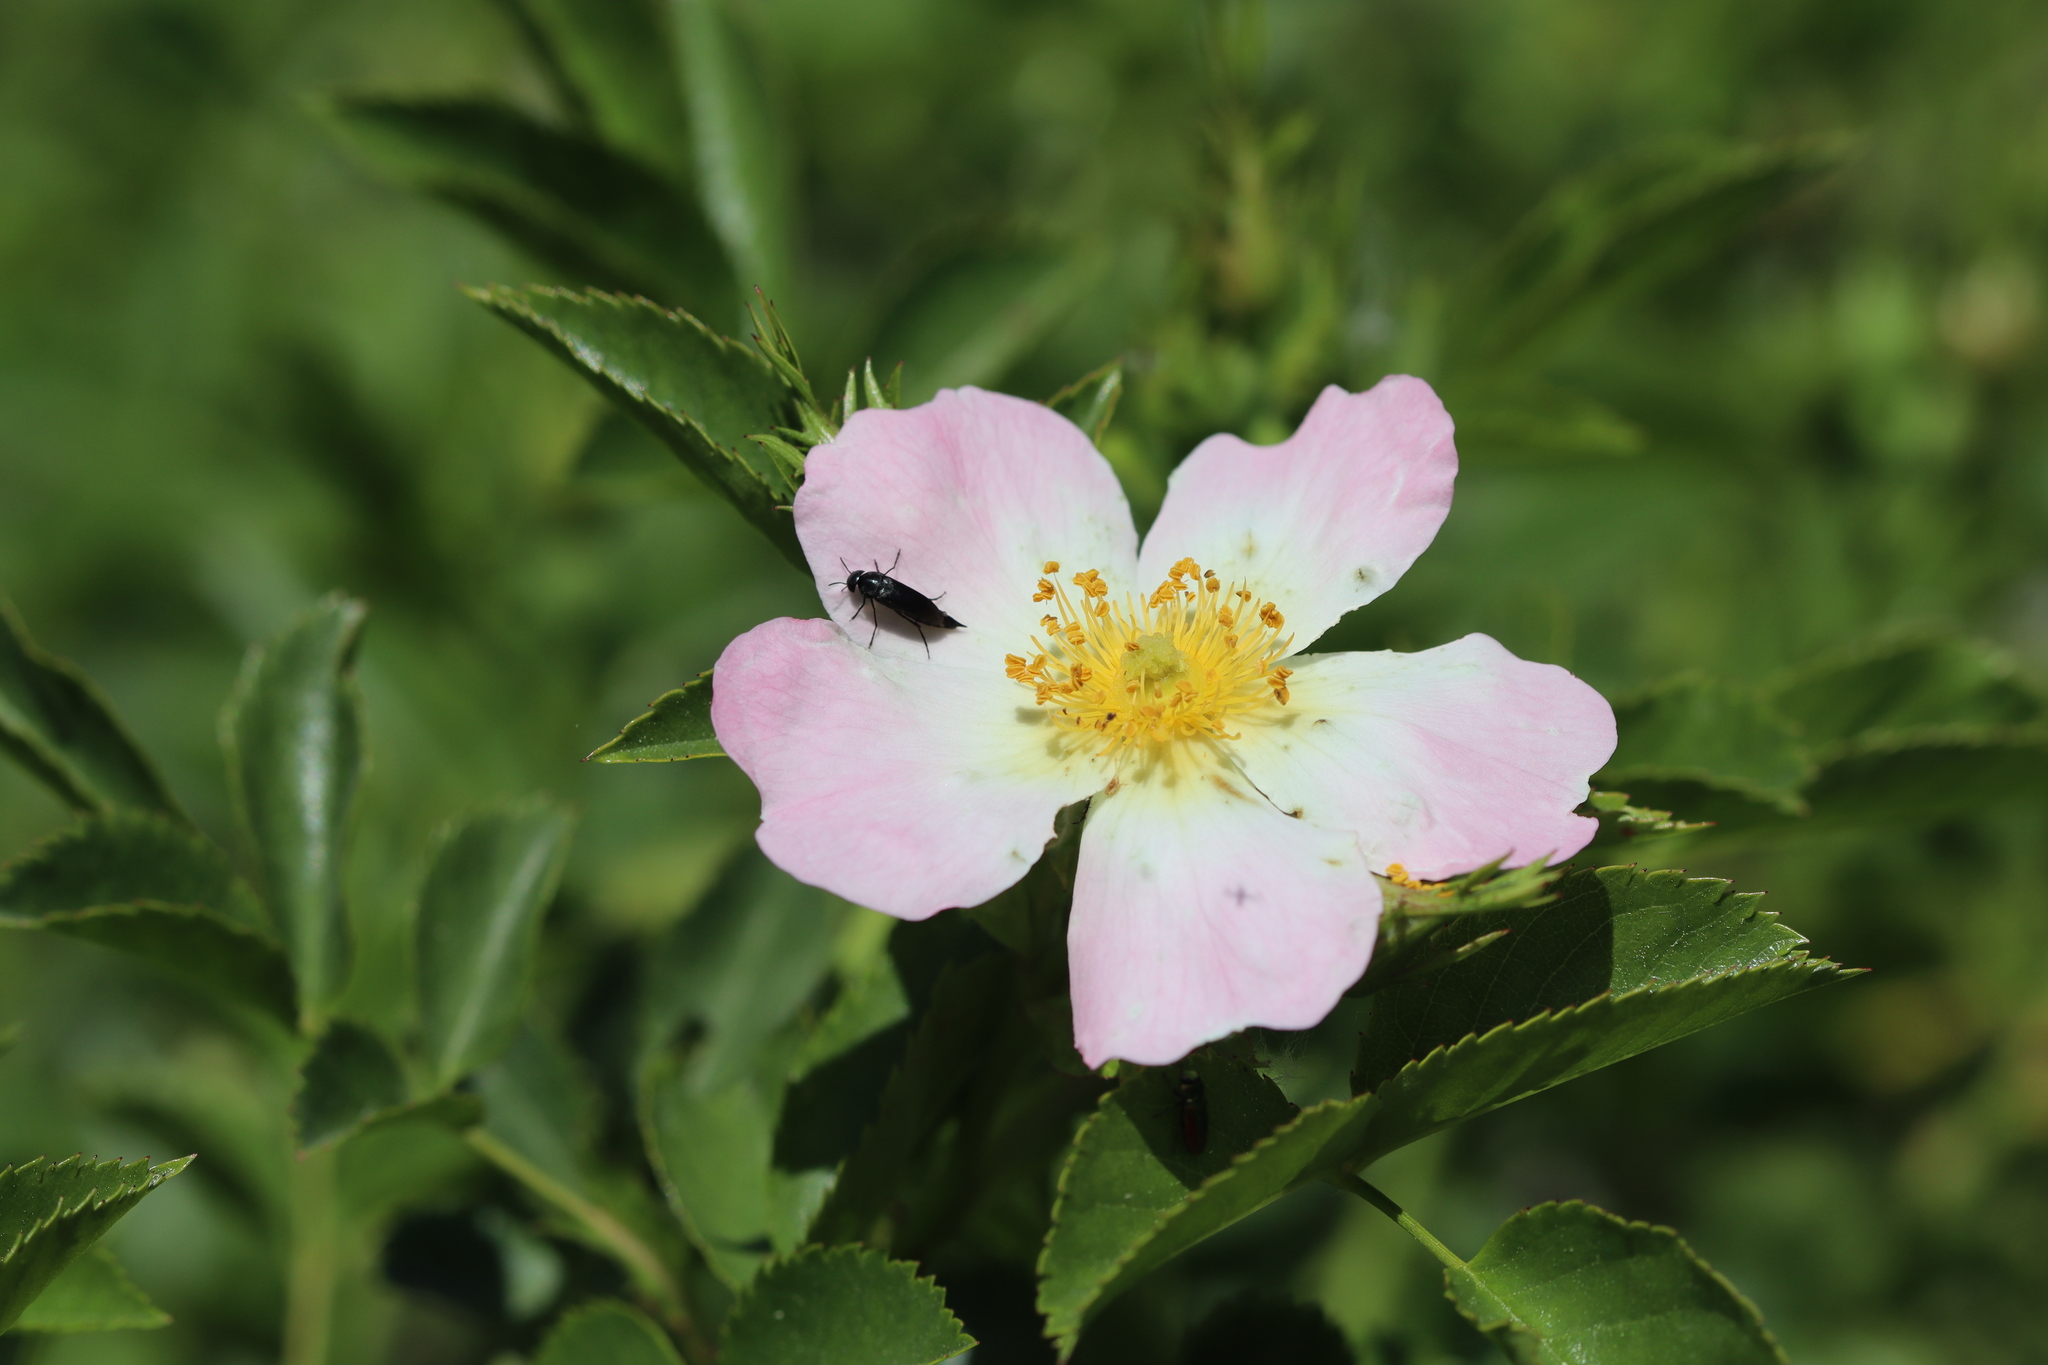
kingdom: Plantae
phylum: Tracheophyta
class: Magnoliopsida
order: Rosales
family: Rosaceae
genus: Rosa
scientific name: Rosa canina
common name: Dog rose
